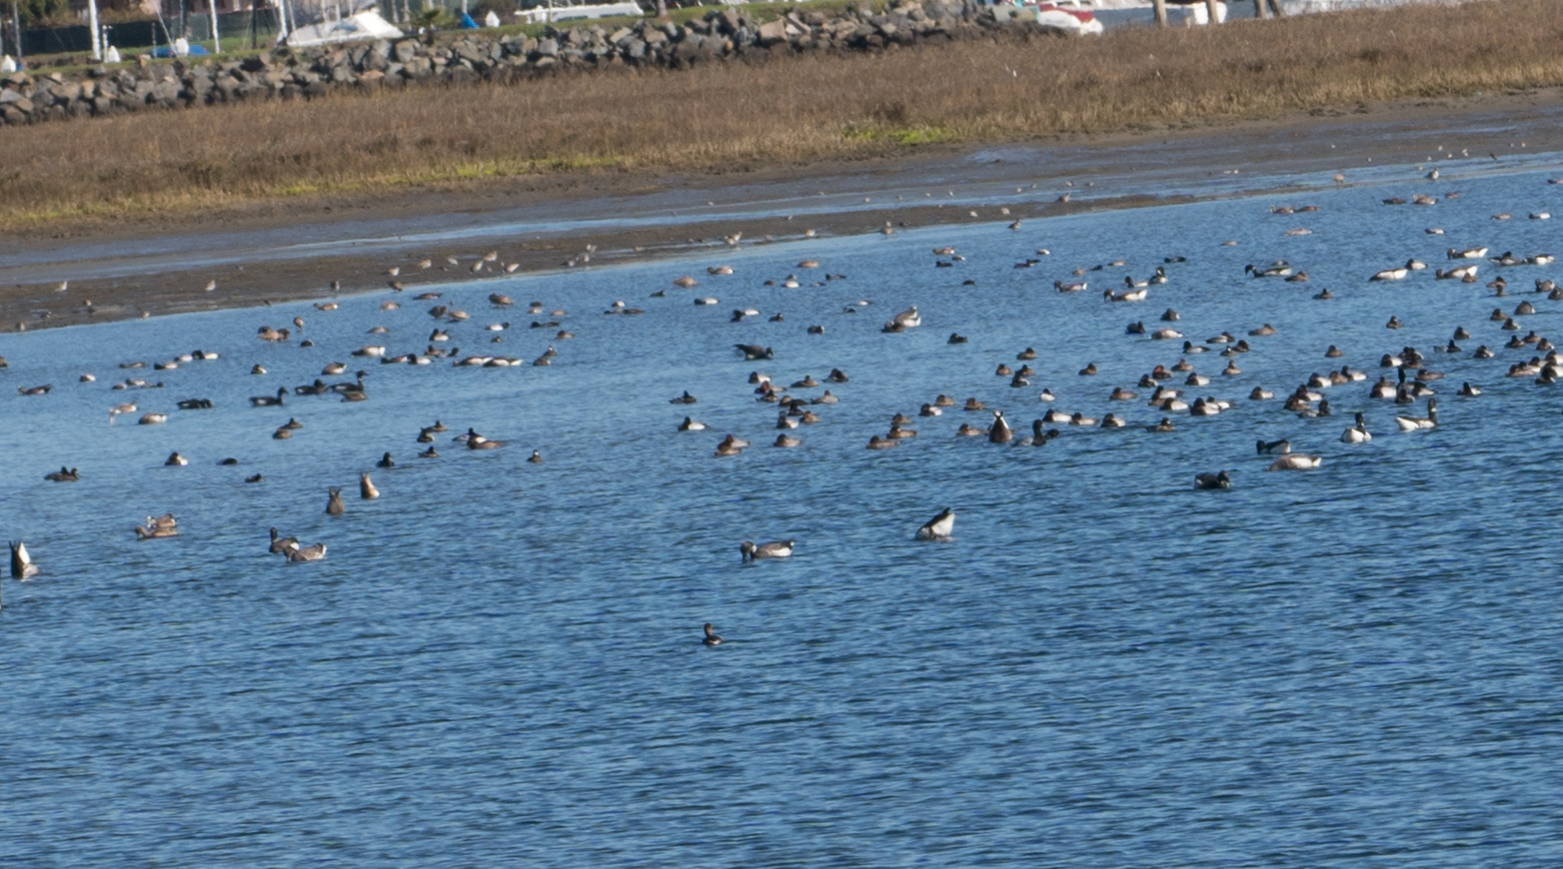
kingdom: Animalia
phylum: Chordata
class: Aves
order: Anseriformes
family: Anatidae
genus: Branta
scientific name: Branta bernicla
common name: Brant goose
